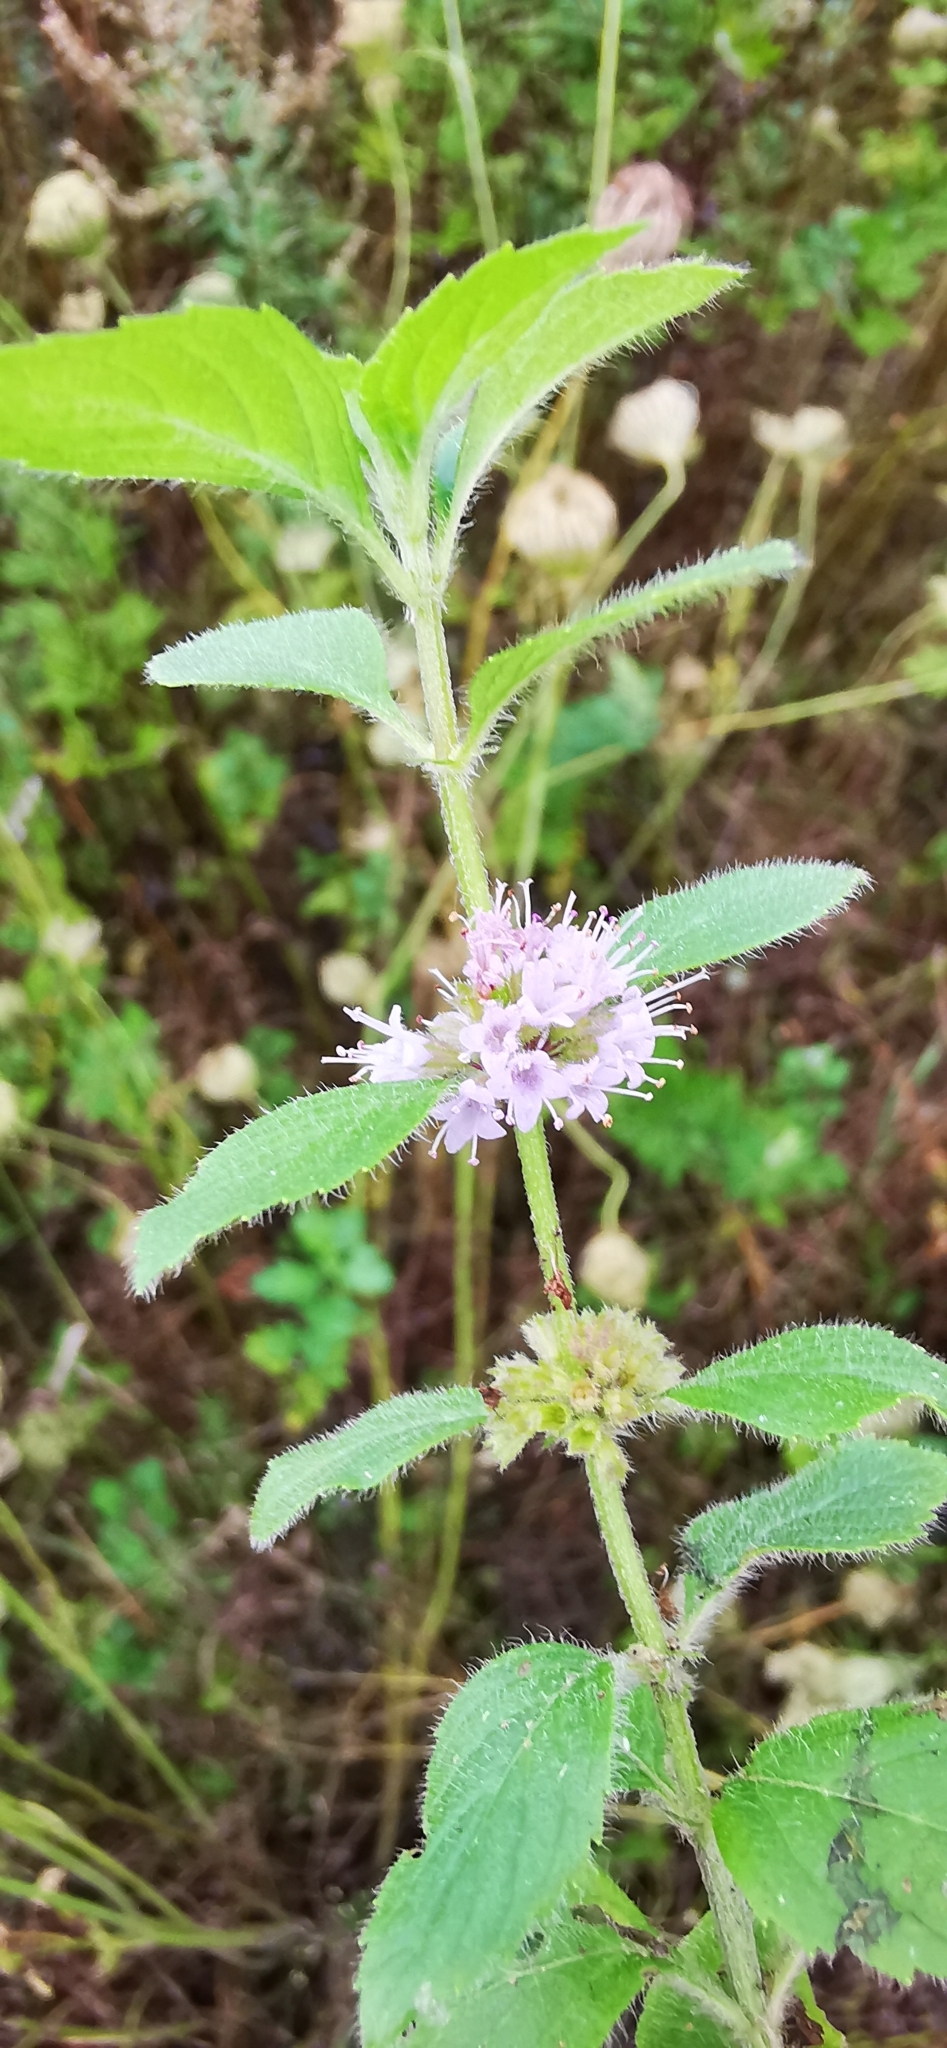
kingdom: Plantae
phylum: Tracheophyta
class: Magnoliopsida
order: Lamiales
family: Lamiaceae
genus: Mentha
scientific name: Mentha arvensis
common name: Corn mint
